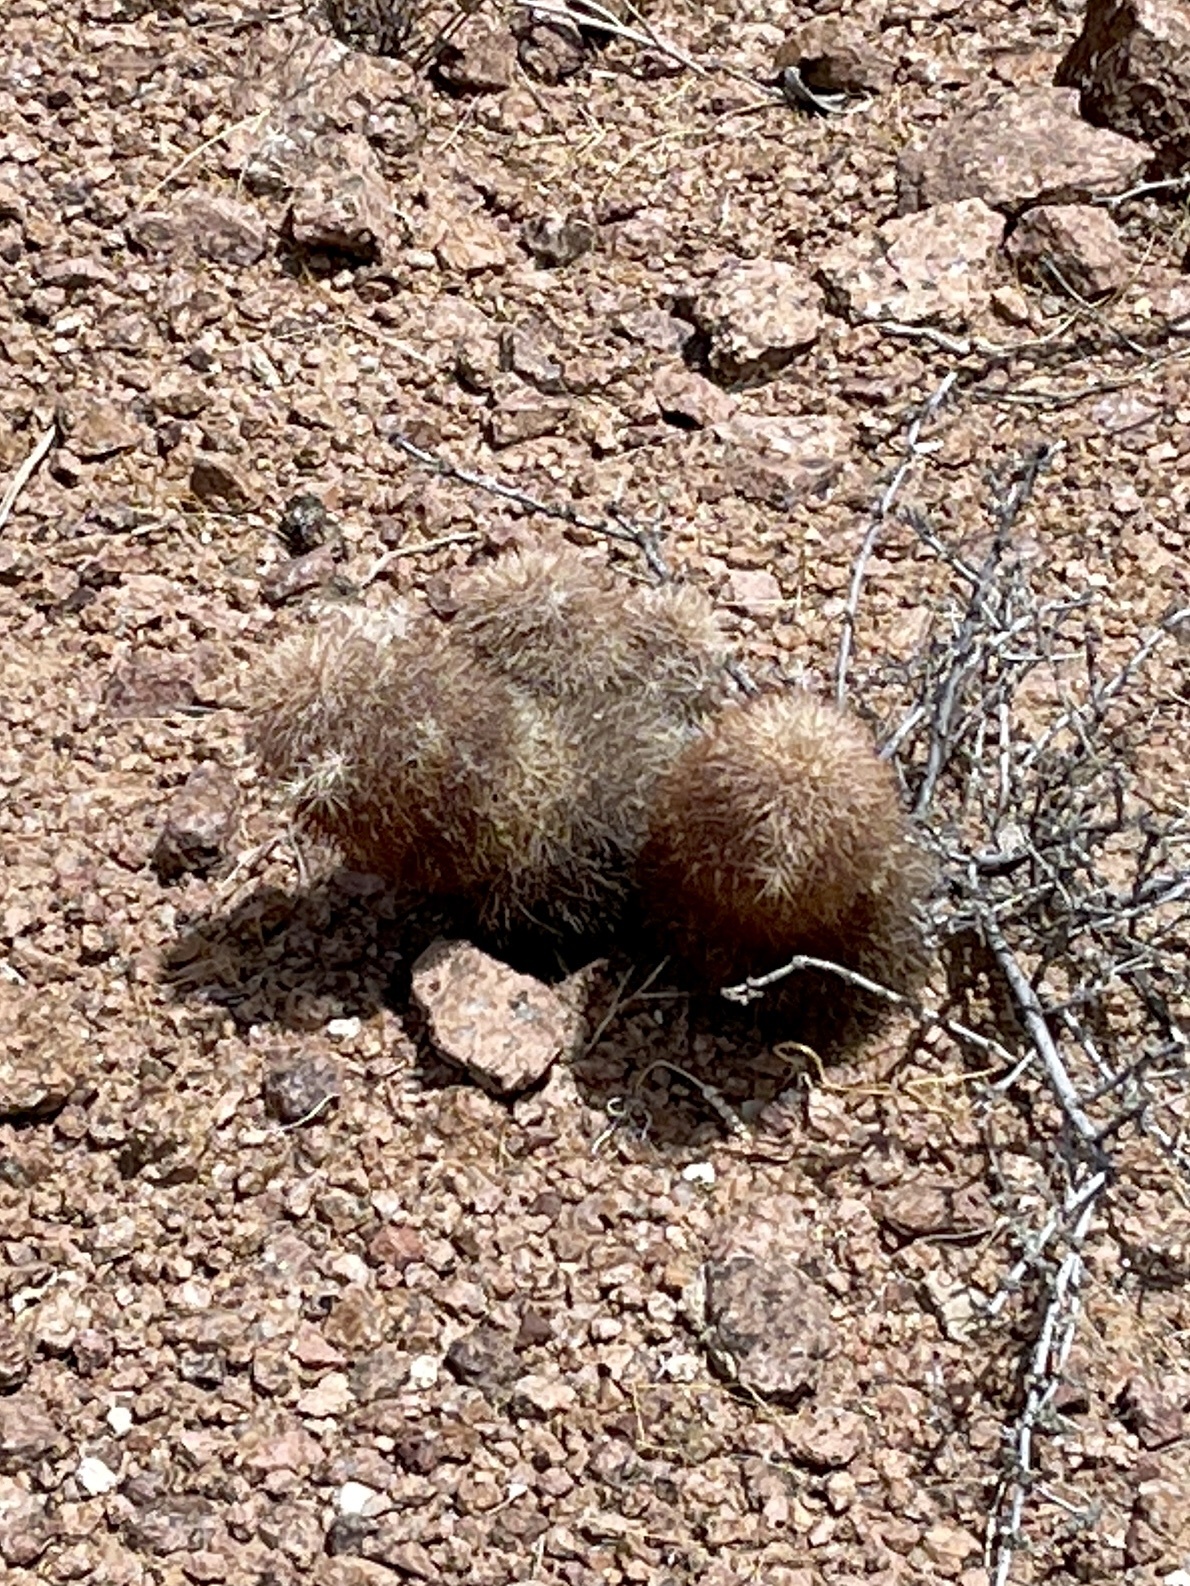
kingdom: Plantae
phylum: Tracheophyta
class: Magnoliopsida
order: Caryophyllales
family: Cactaceae
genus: Echinocereus
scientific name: Echinocereus dasyacanthus
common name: Spiny hedgehog cactus
